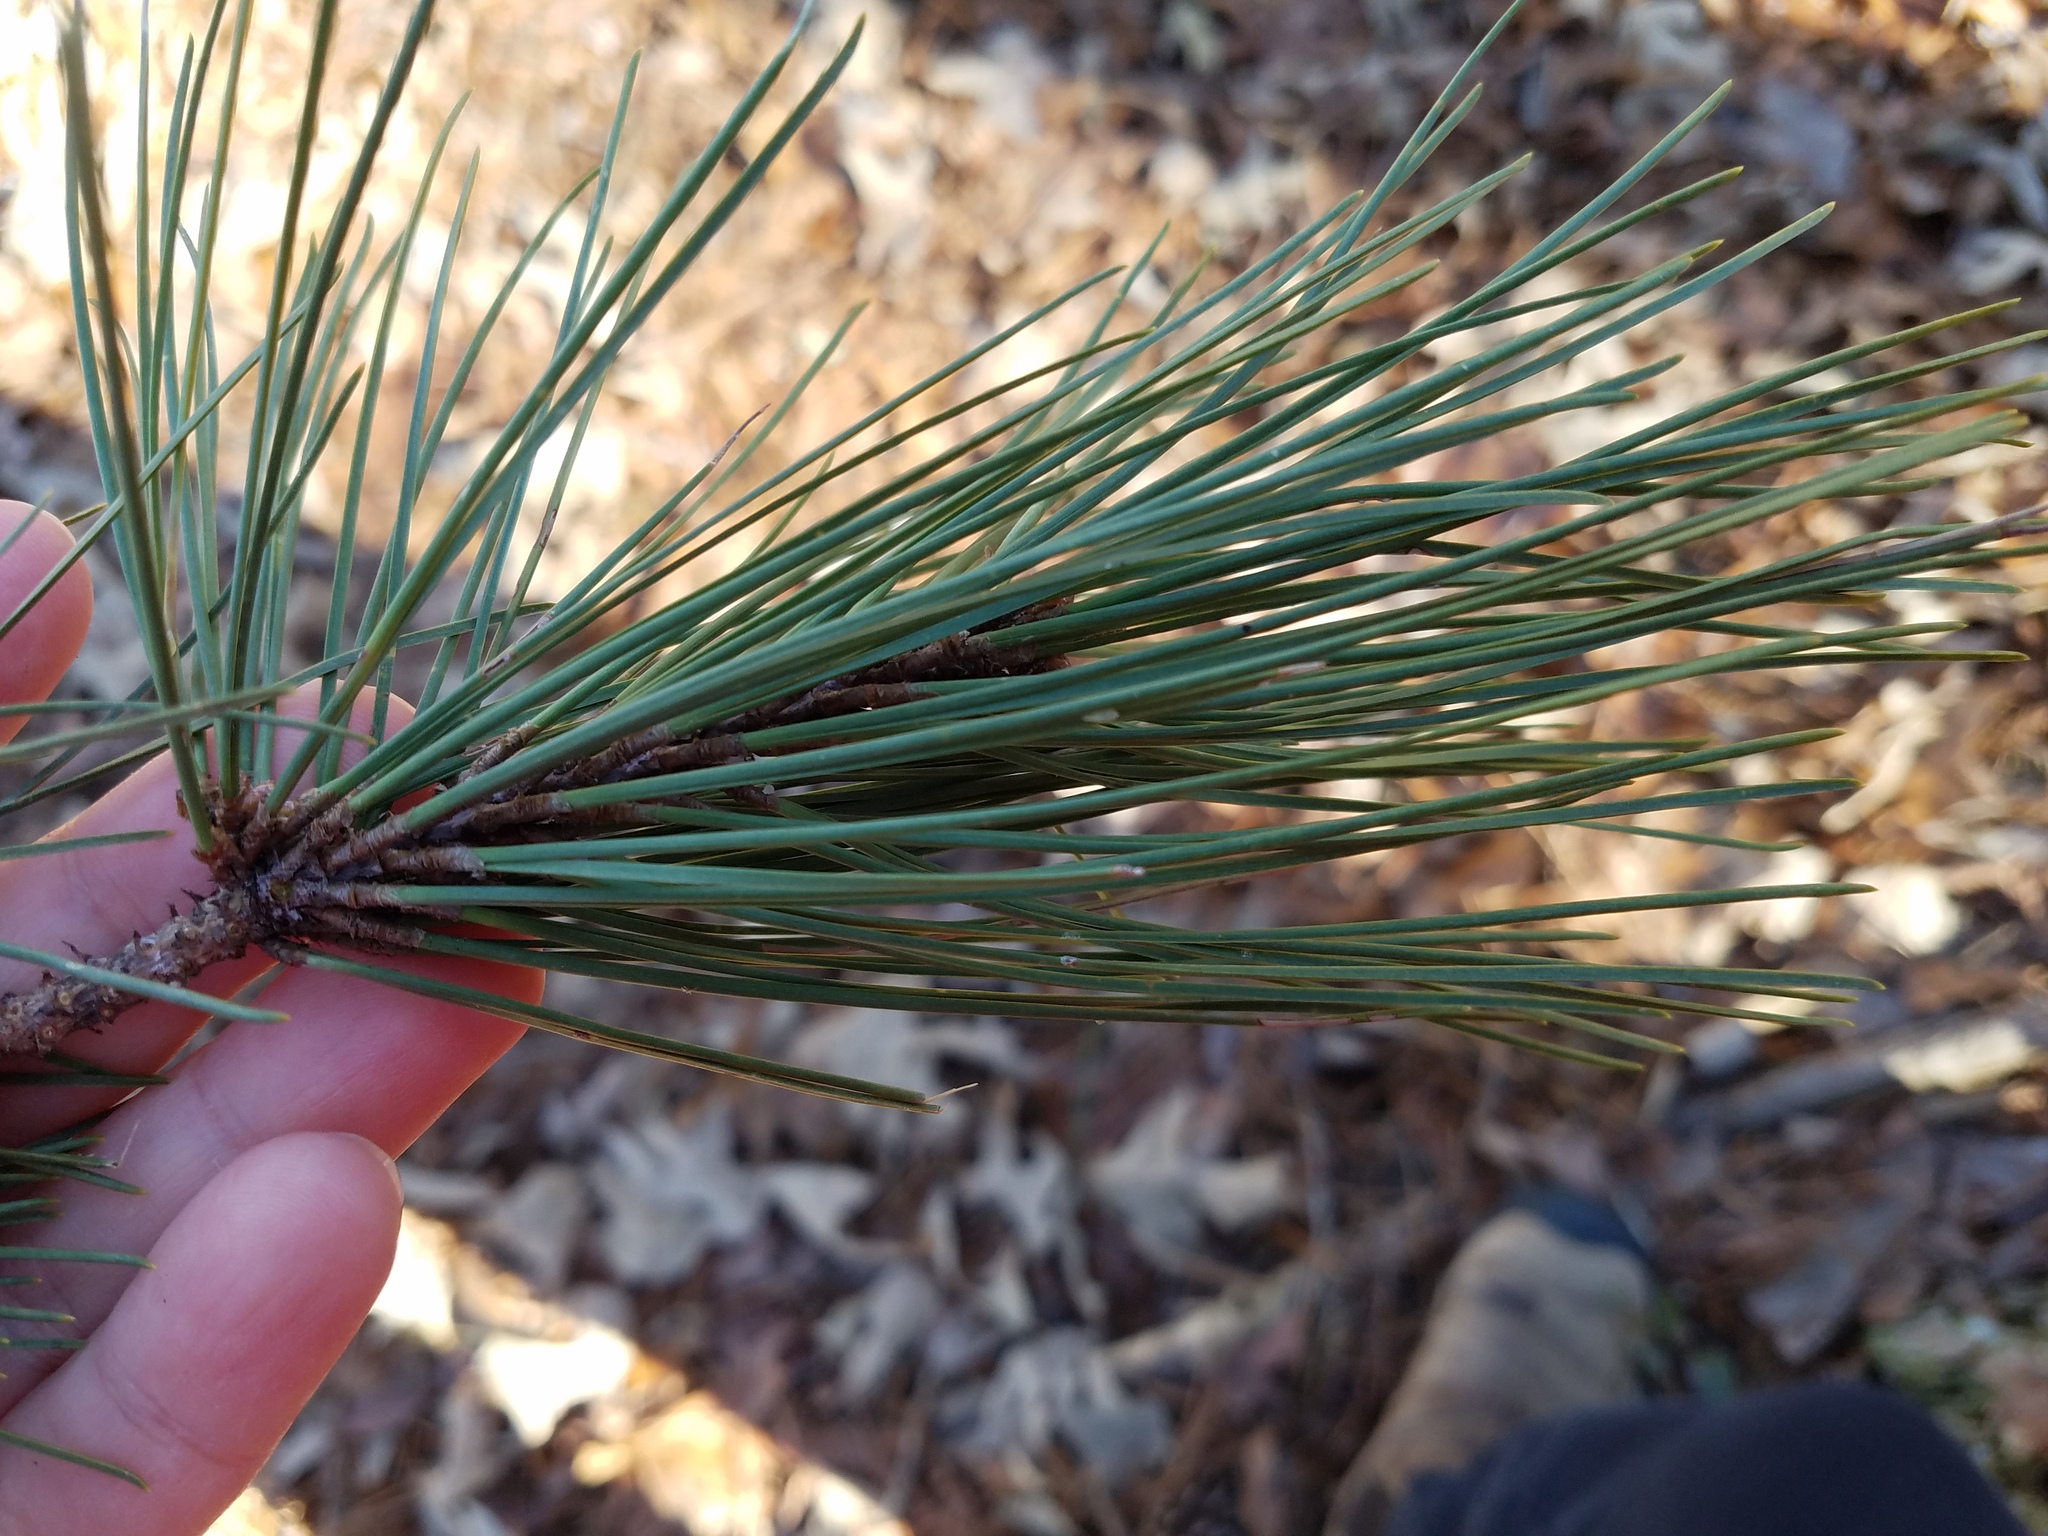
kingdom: Plantae
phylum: Tracheophyta
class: Pinopsida
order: Pinales
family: Pinaceae
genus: Pinus
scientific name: Pinus echinata
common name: Shortleaf pine
